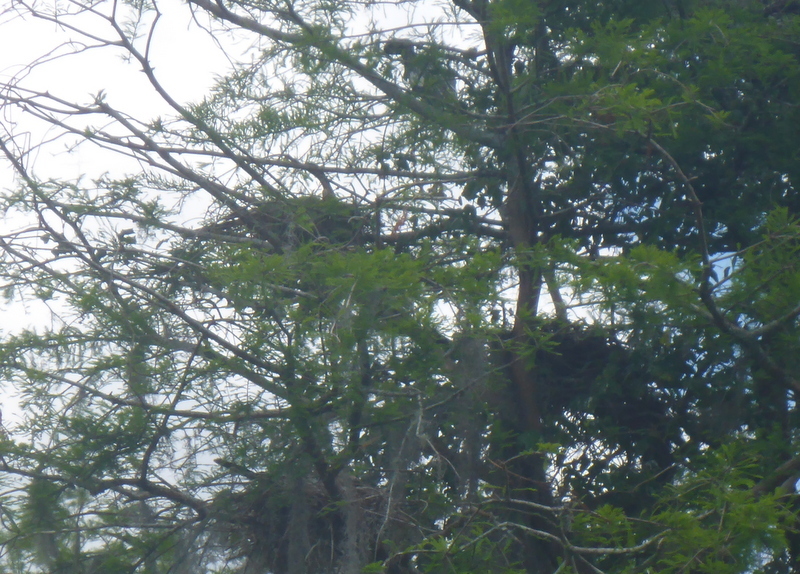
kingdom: Animalia
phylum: Chordata
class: Aves
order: Suliformes
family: Anhingidae
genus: Anhinga
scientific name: Anhinga anhinga
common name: Anhinga
